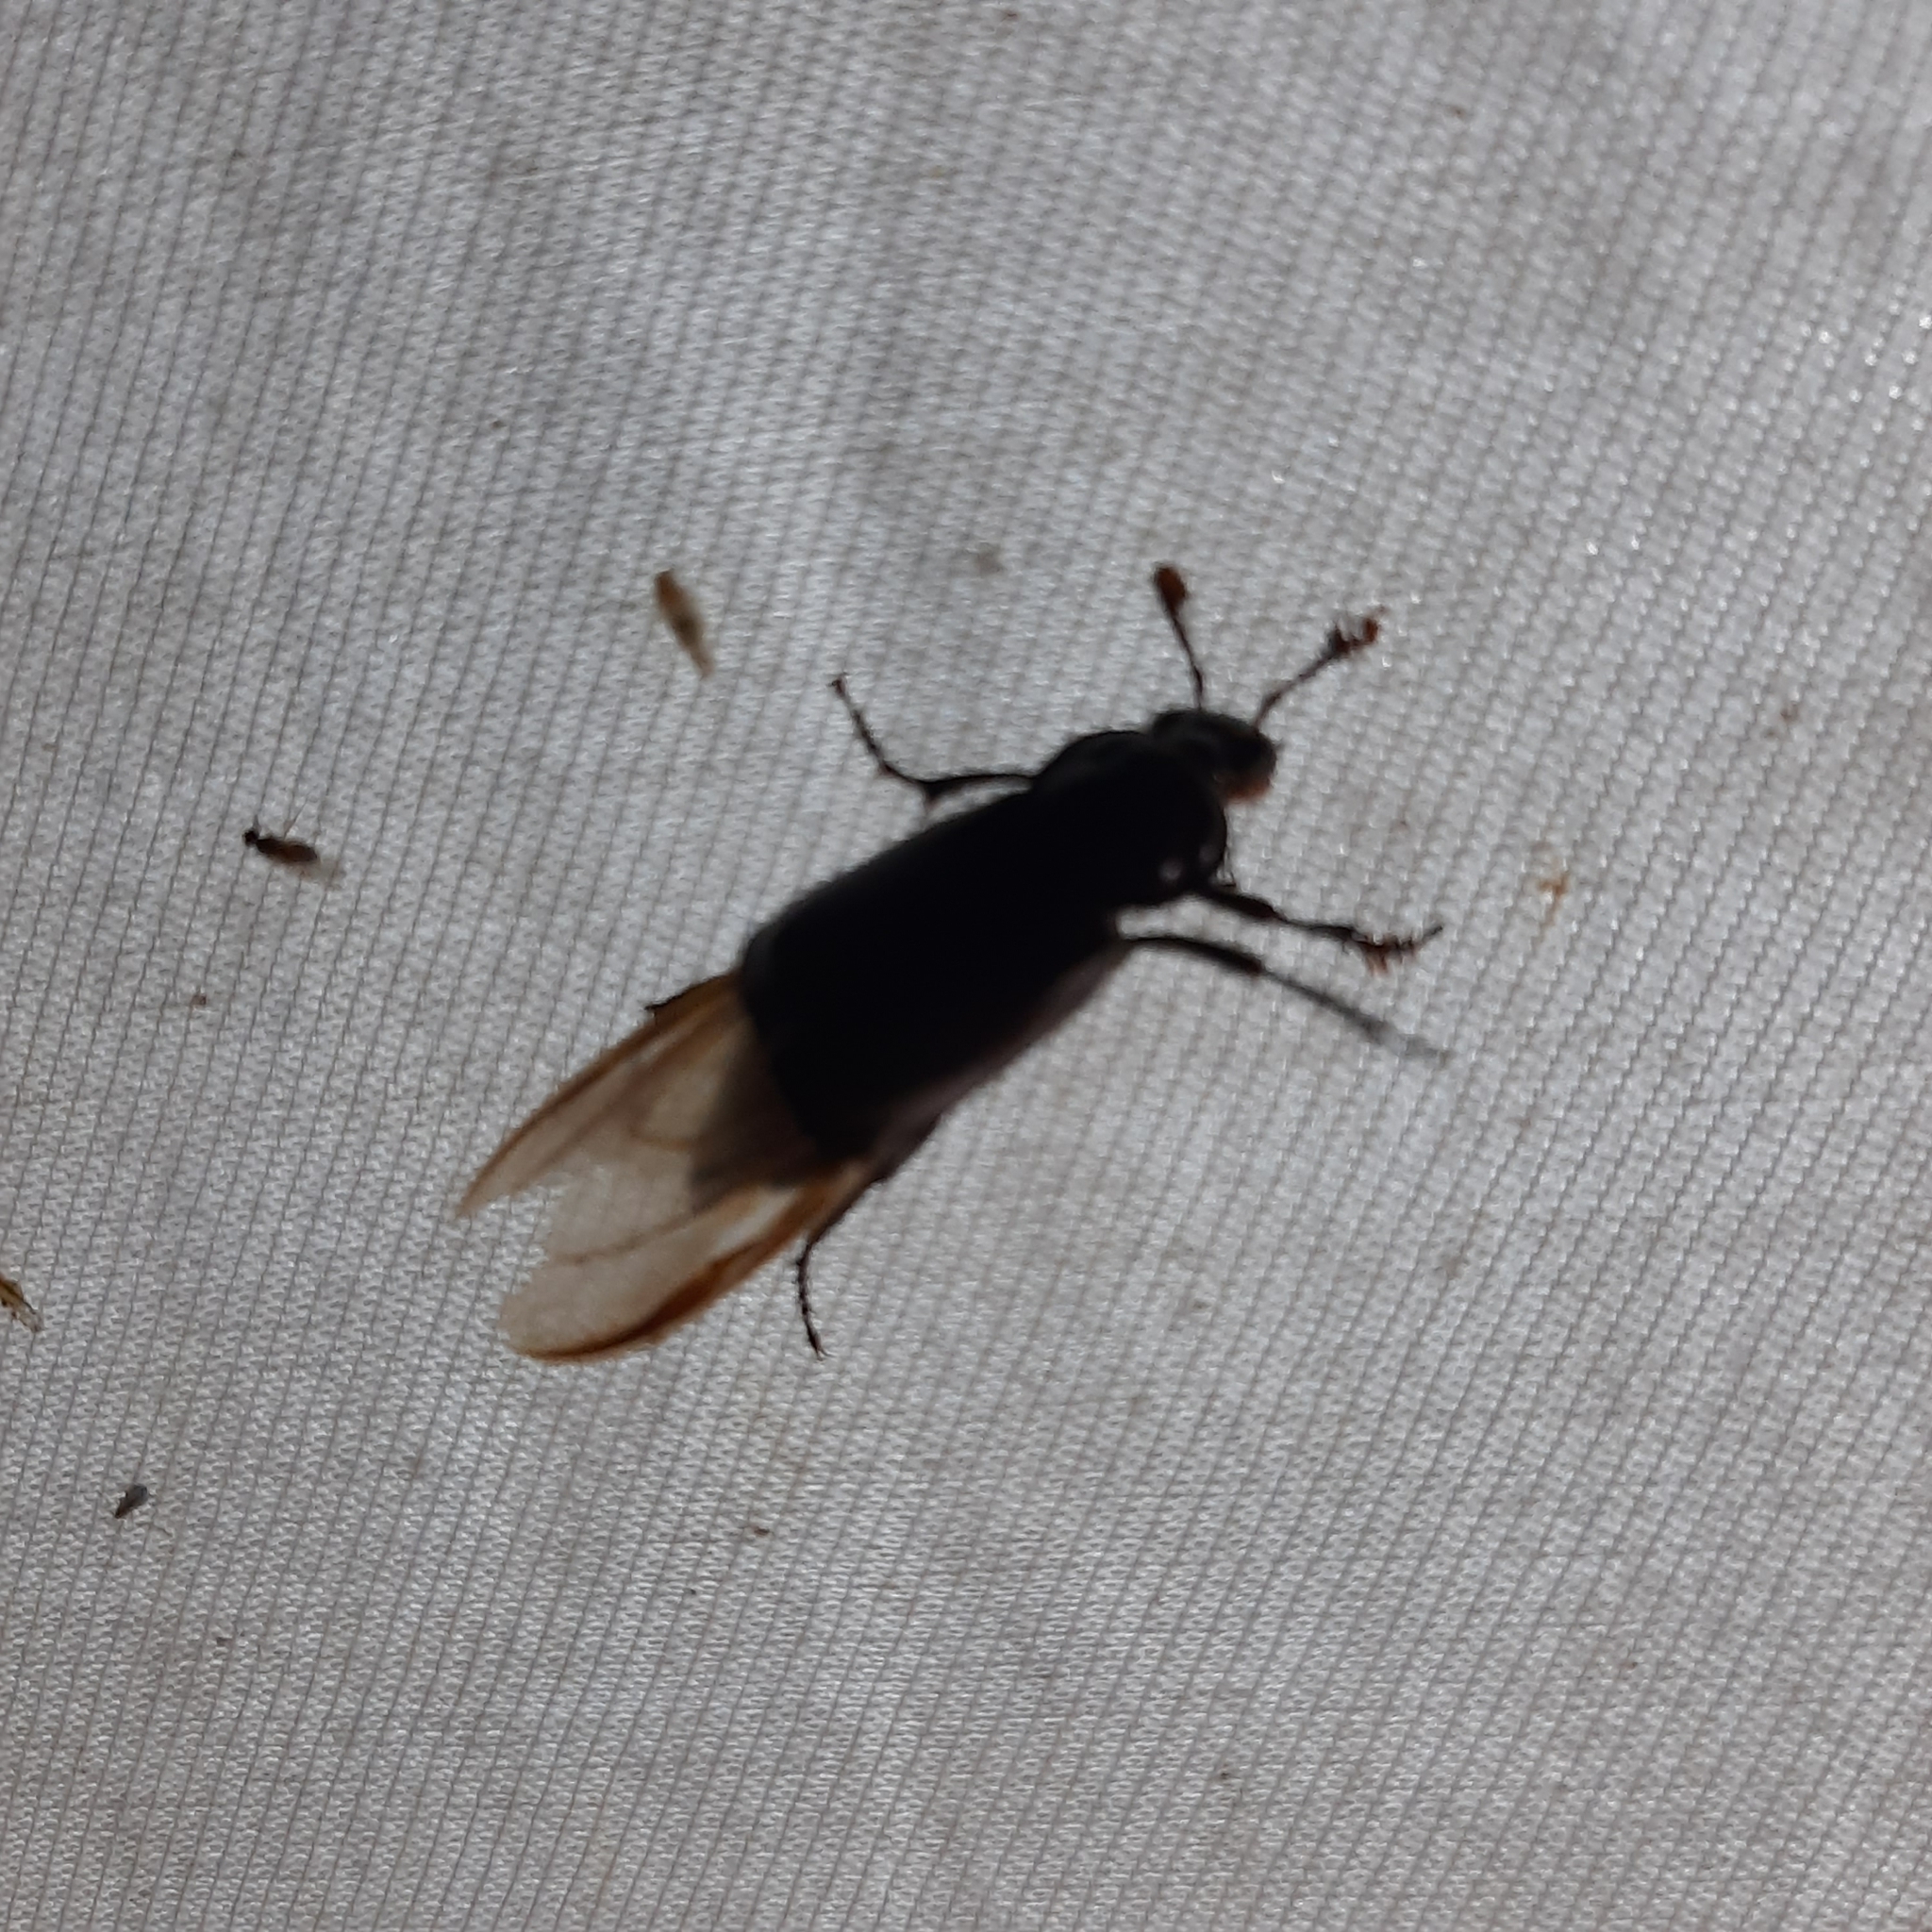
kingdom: Animalia
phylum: Arthropoda
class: Insecta
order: Coleoptera
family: Staphylinidae
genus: Nicrophorus
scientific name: Nicrophorus humator
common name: Black sexton beetle
